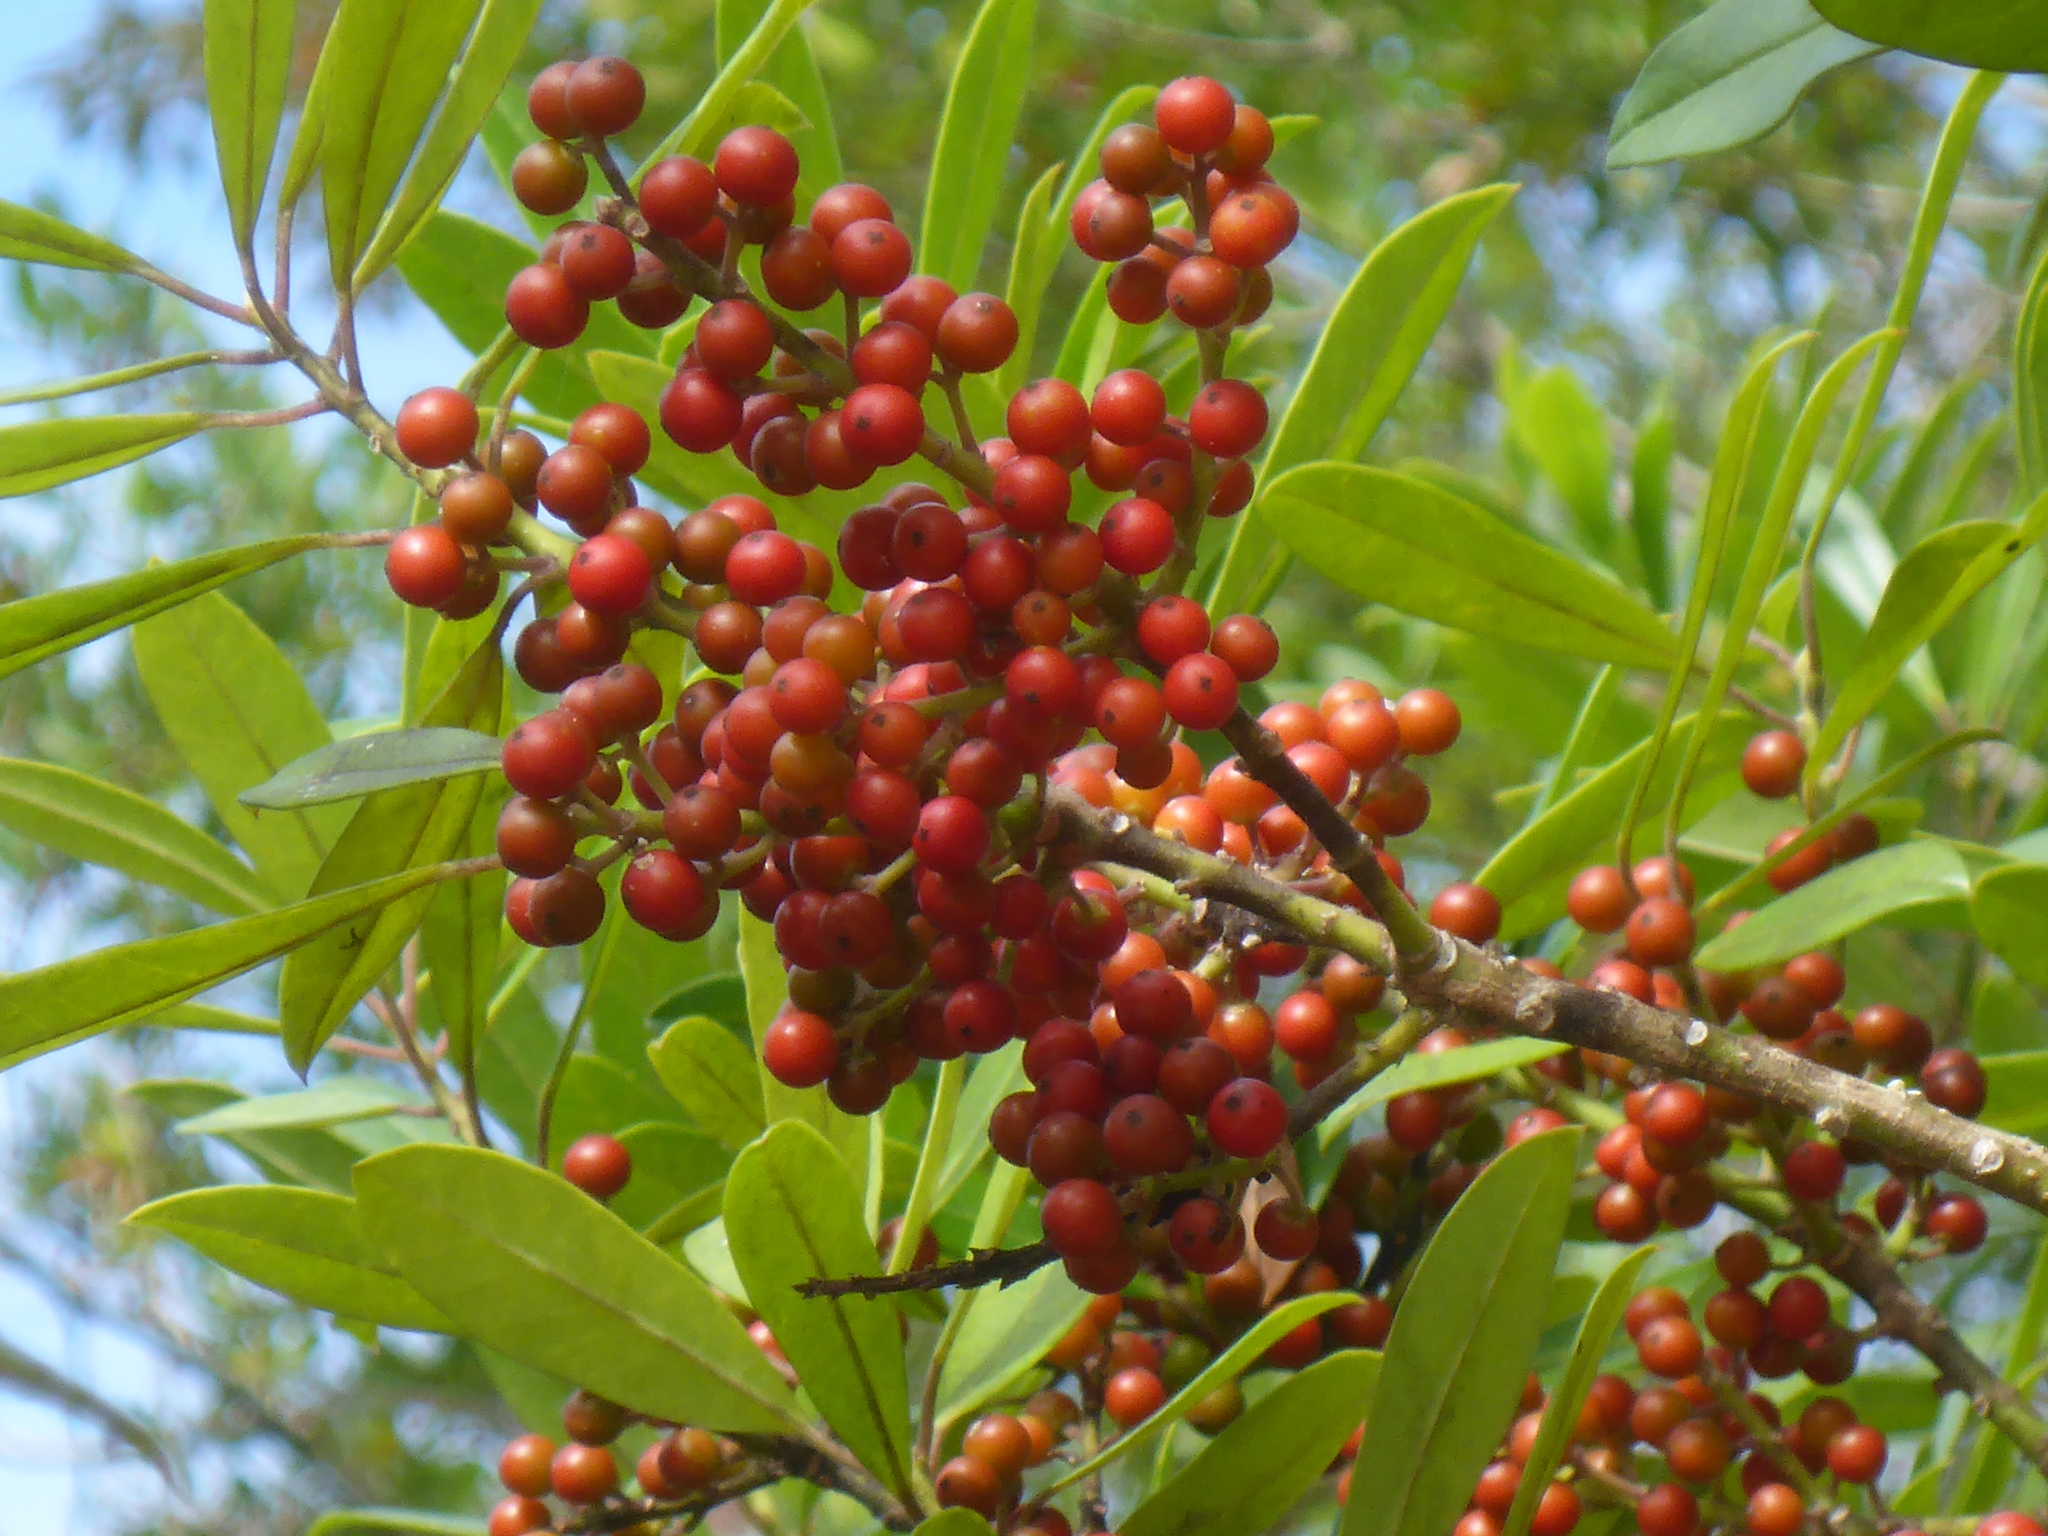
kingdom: Plantae
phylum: Tracheophyta
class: Magnoliopsida
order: Aquifoliales
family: Aquifoliaceae
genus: Ilex
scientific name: Ilex cassine
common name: Dahoon
